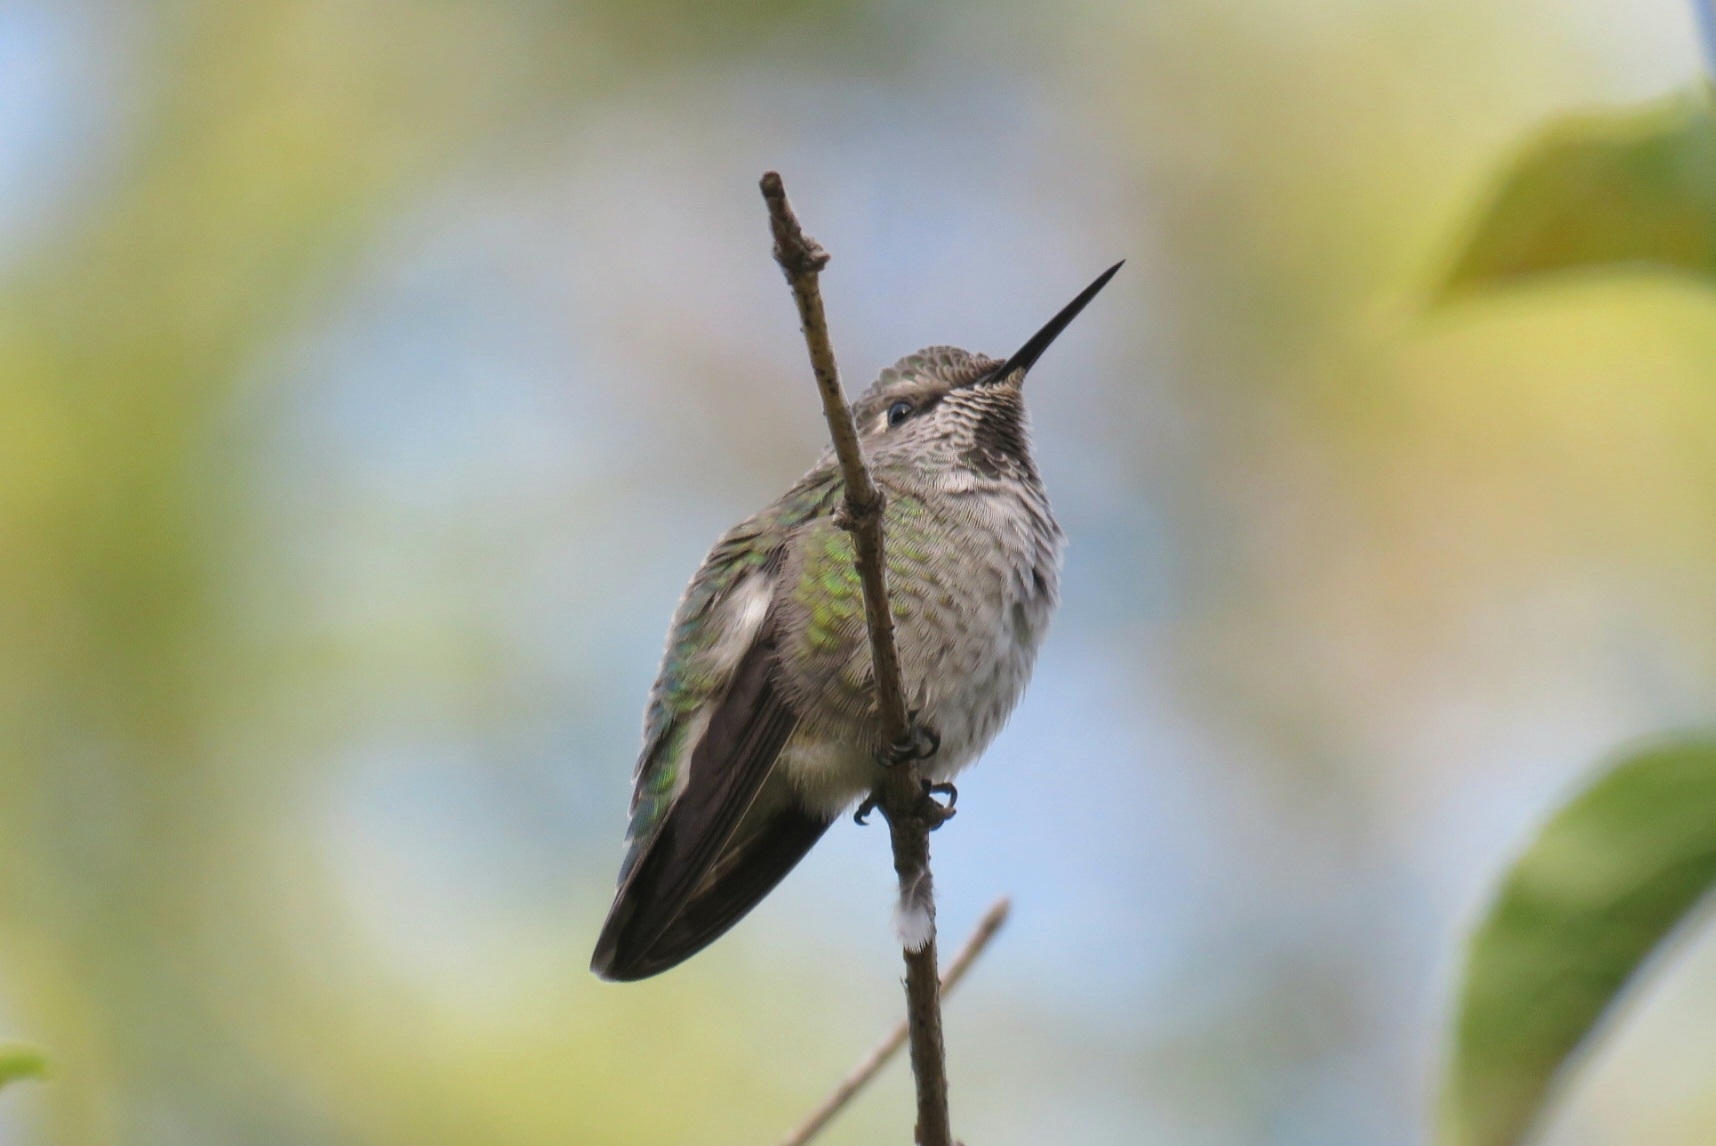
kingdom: Animalia
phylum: Chordata
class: Aves
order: Apodiformes
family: Trochilidae
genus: Calypte
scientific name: Calypte anna
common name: Anna's hummingbird
